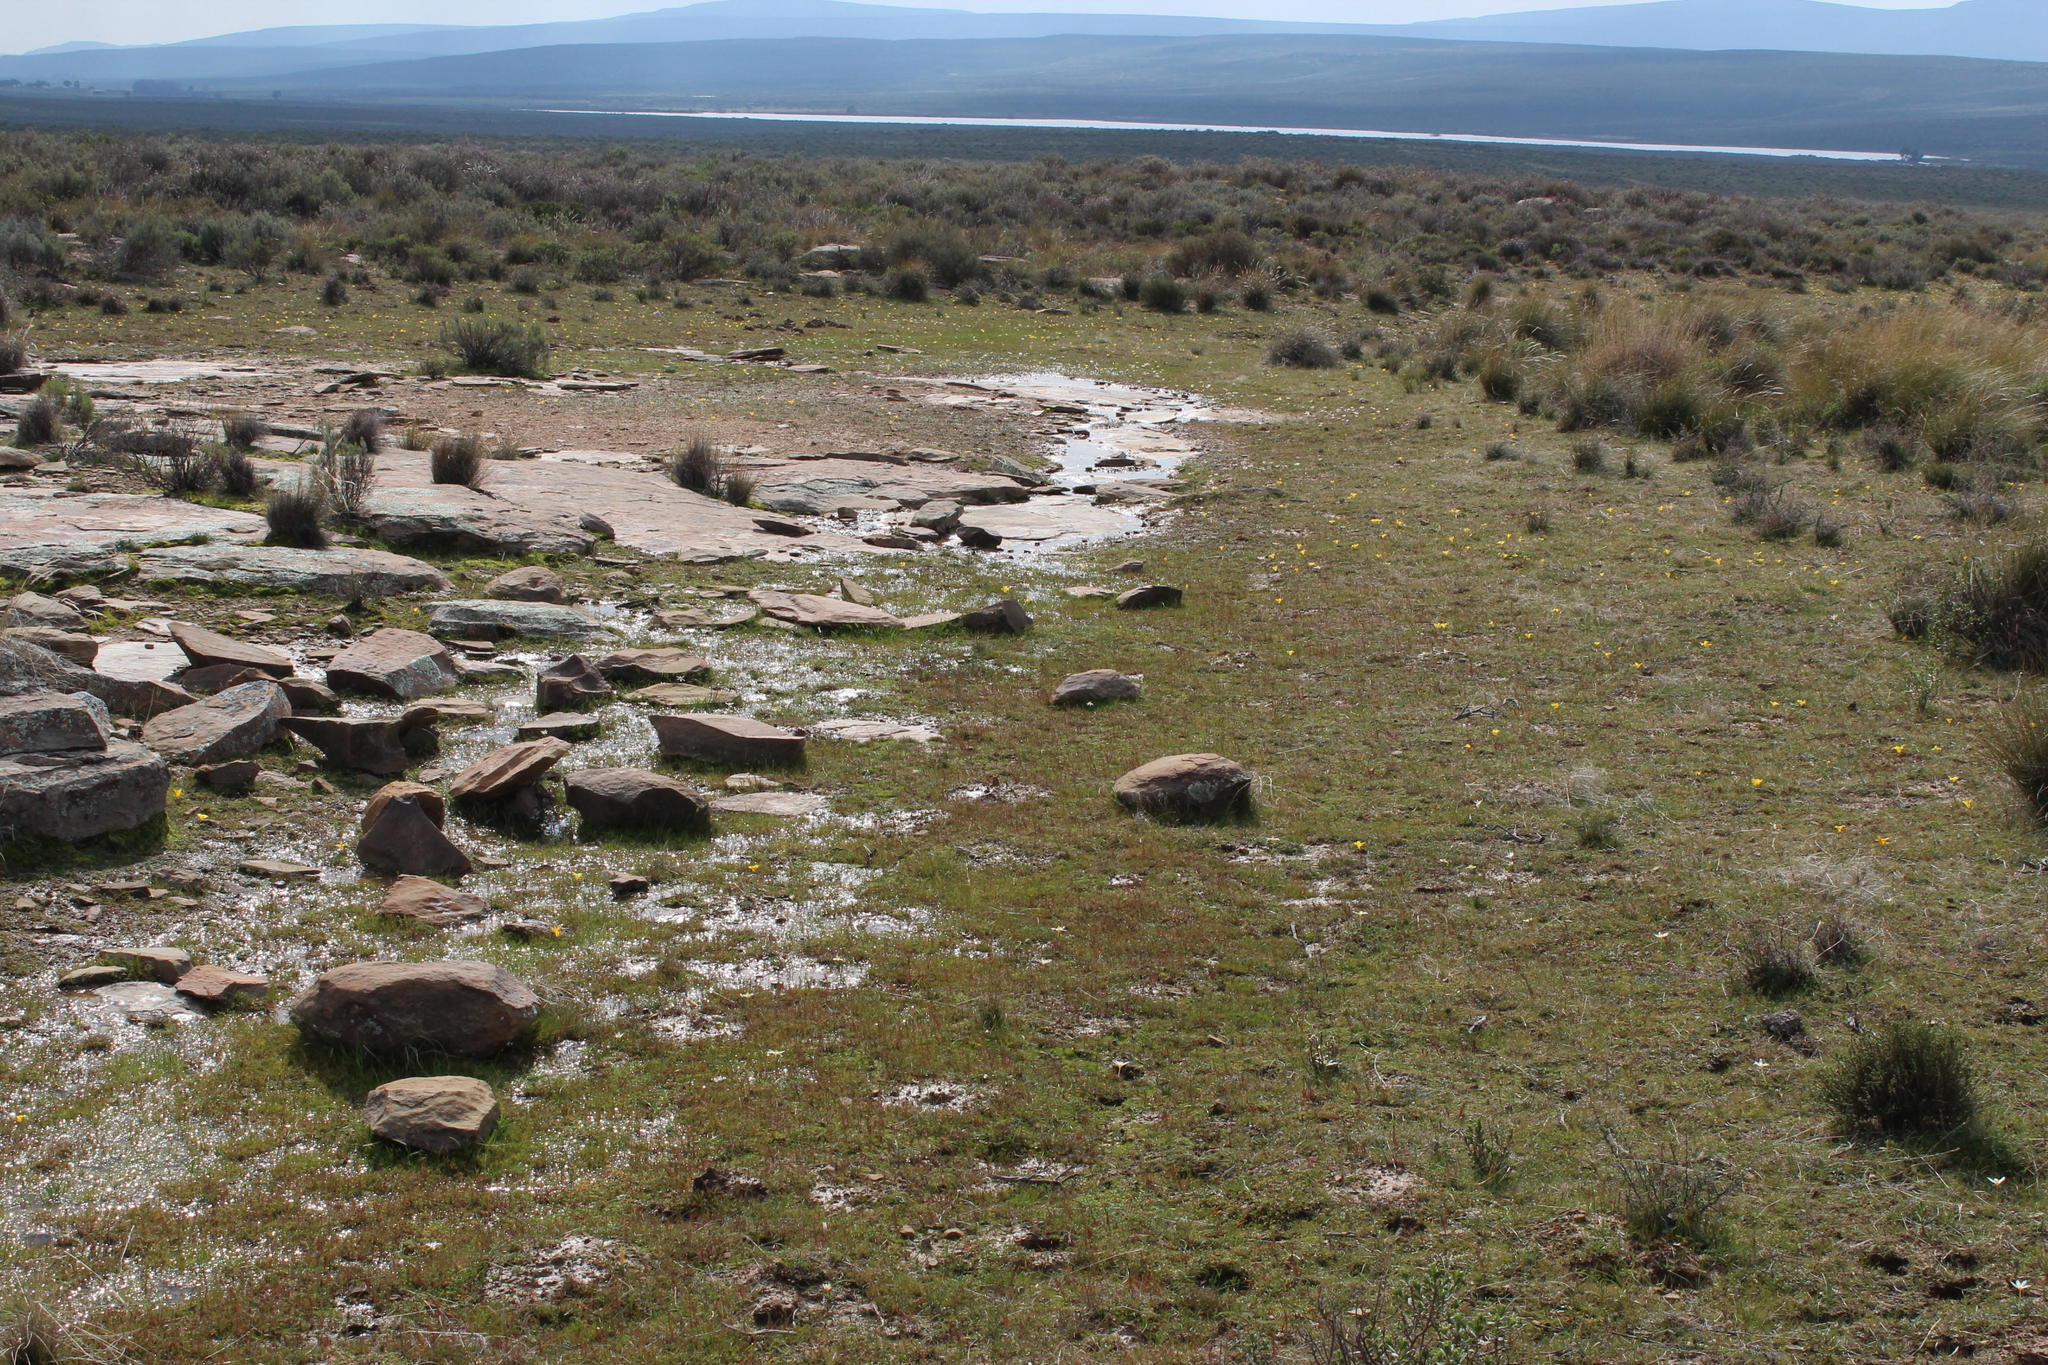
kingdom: Plantae
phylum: Tracheophyta
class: Liliopsida
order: Asparagales
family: Iridaceae
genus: Romulea
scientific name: Romulea tortuosa
